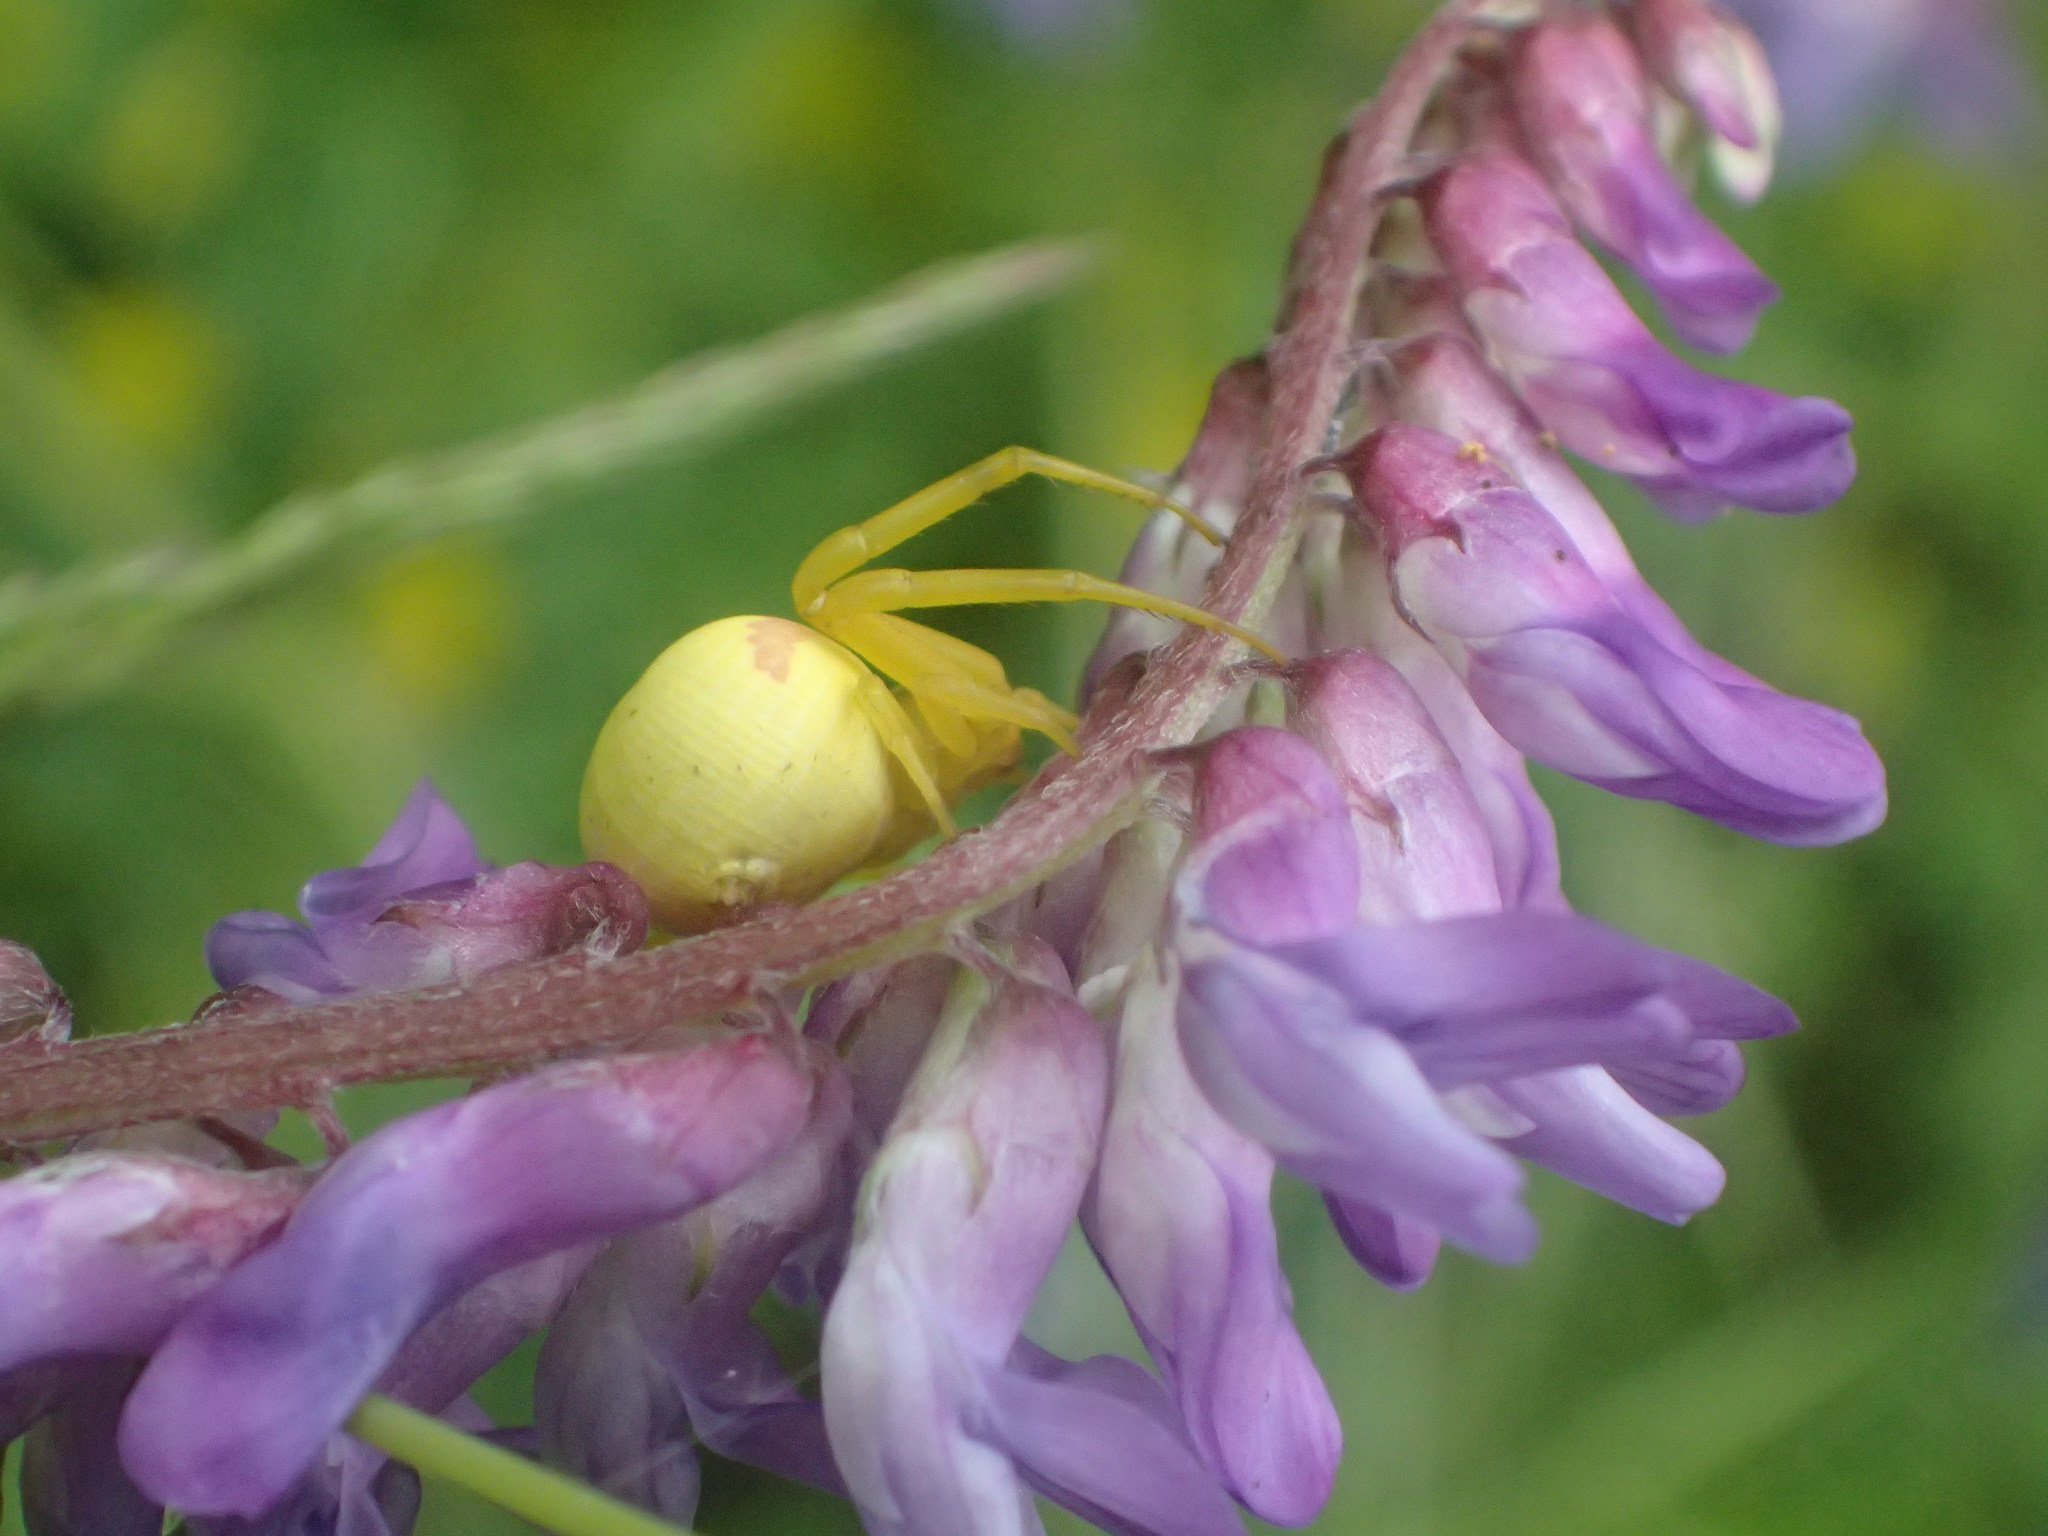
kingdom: Animalia
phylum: Arthropoda
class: Arachnida
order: Araneae
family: Thomisidae
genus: Misumena
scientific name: Misumena vatia
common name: Goldenrod crab spider
